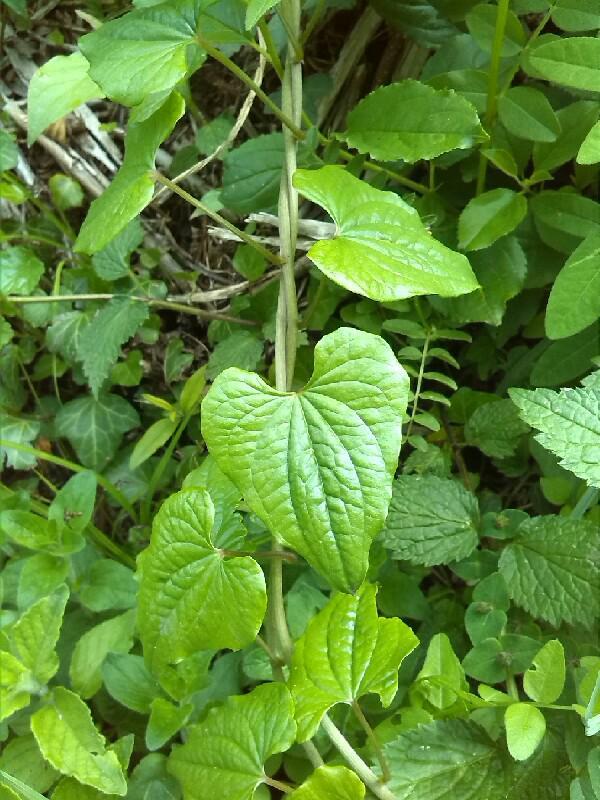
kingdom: Plantae
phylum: Tracheophyta
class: Liliopsida
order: Dioscoreales
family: Dioscoreaceae
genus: Dioscorea
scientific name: Dioscorea communis
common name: Black-bindweed
